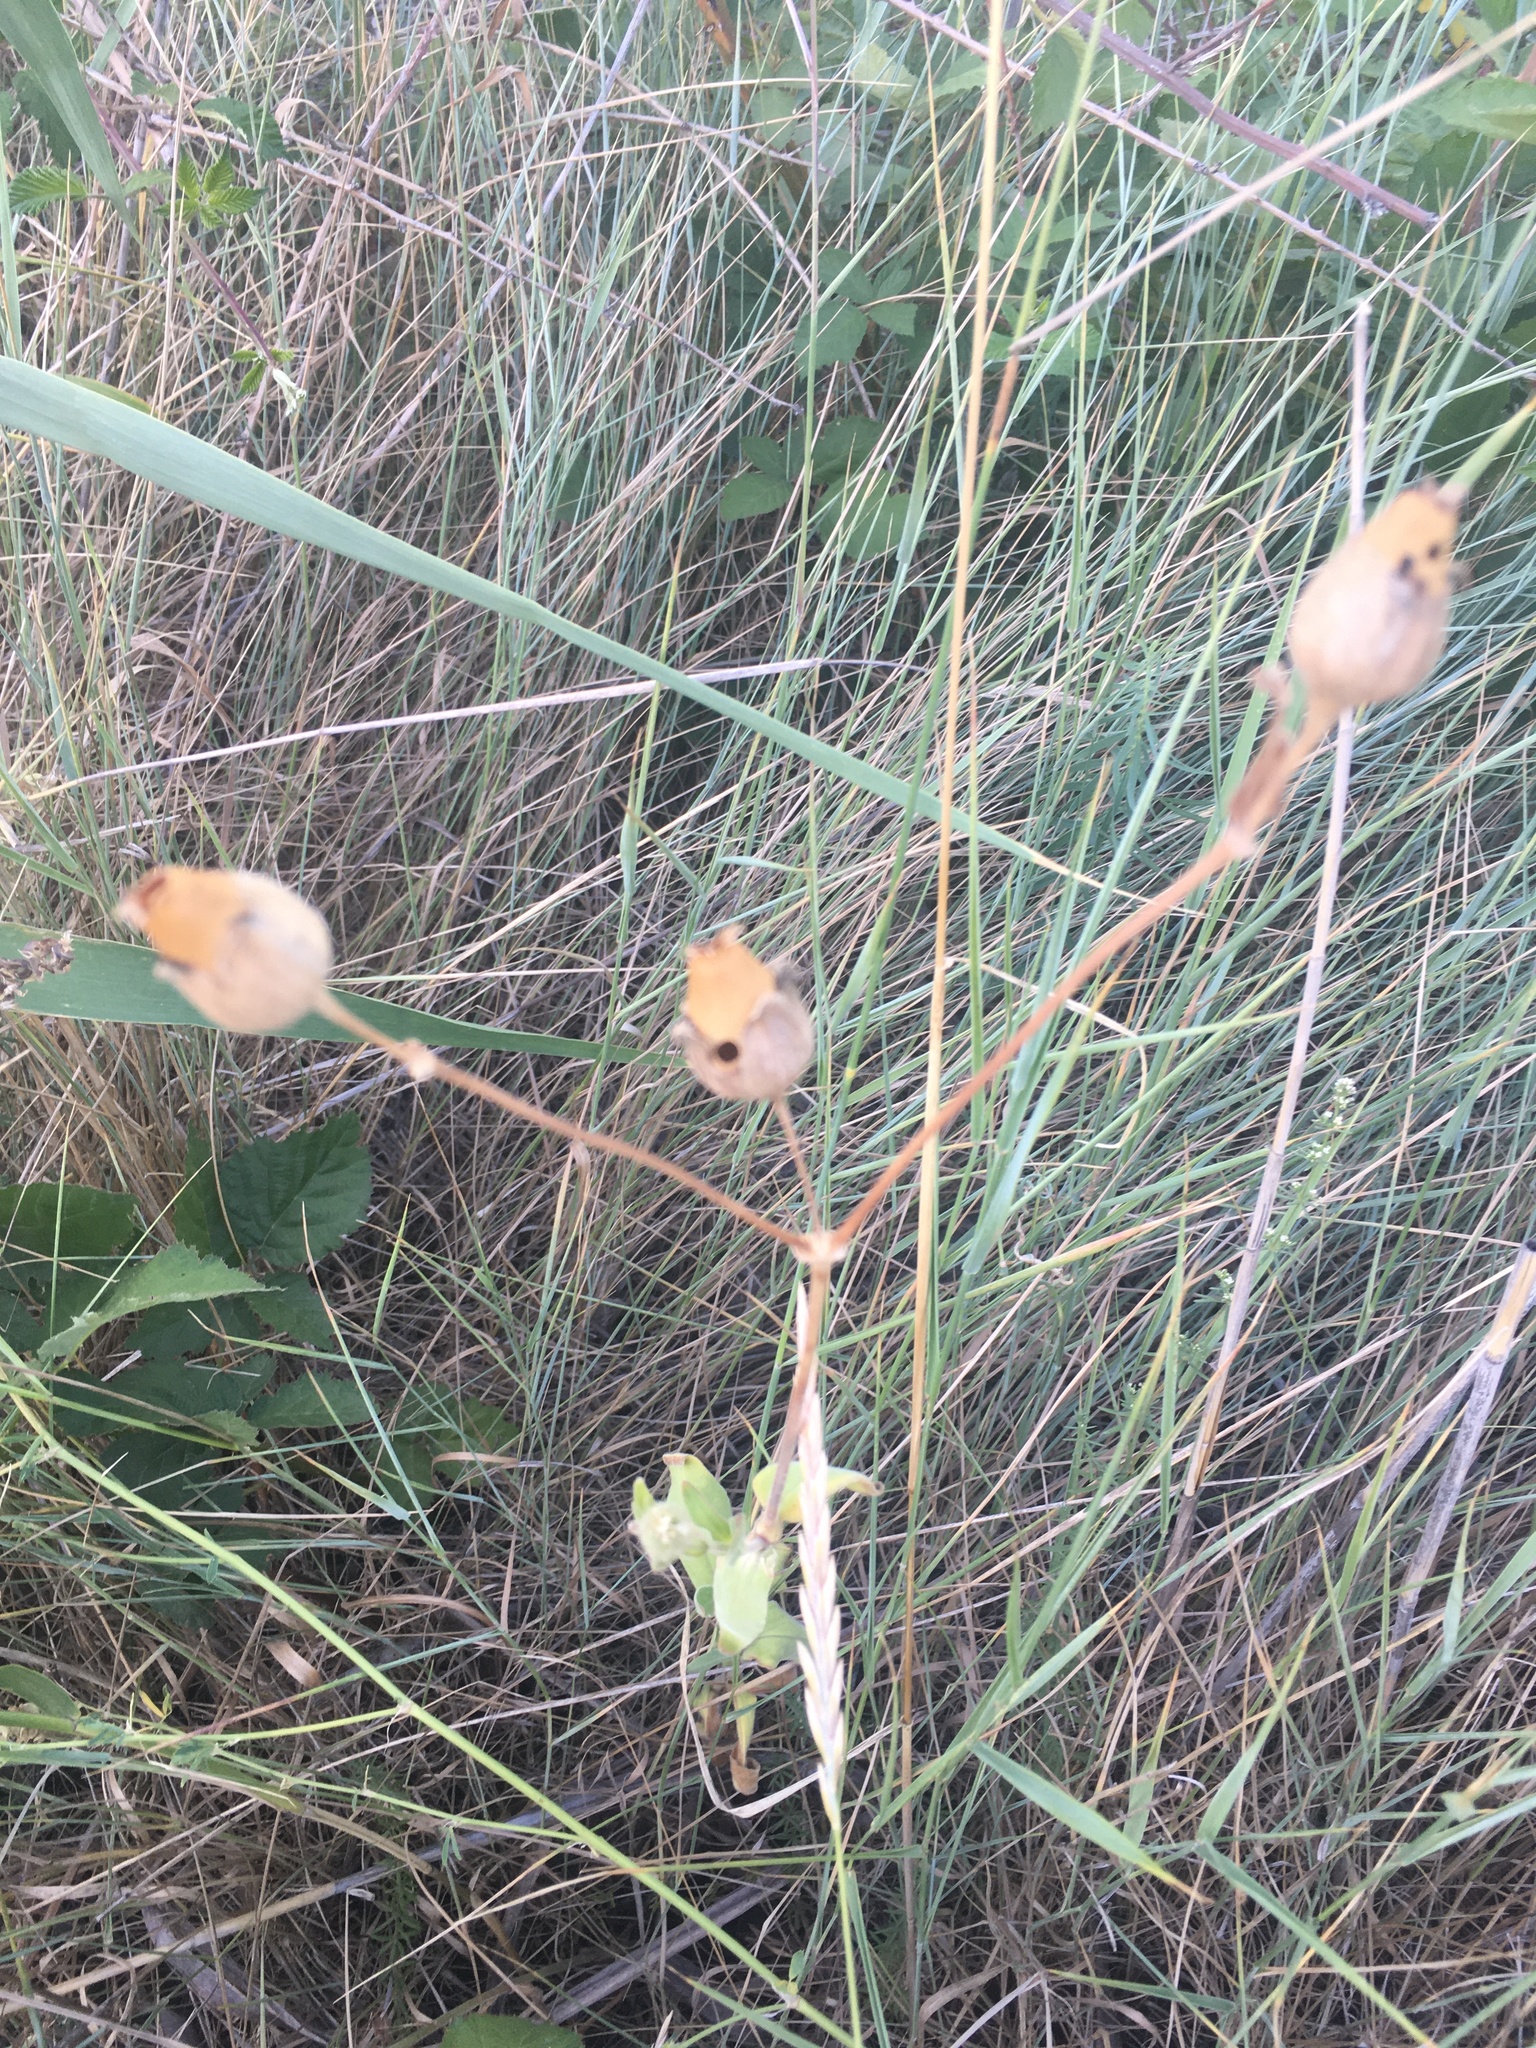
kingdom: Plantae
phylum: Tracheophyta
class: Magnoliopsida
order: Caryophyllales
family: Caryophyllaceae
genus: Silene
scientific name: Silene latifolia
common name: White campion
